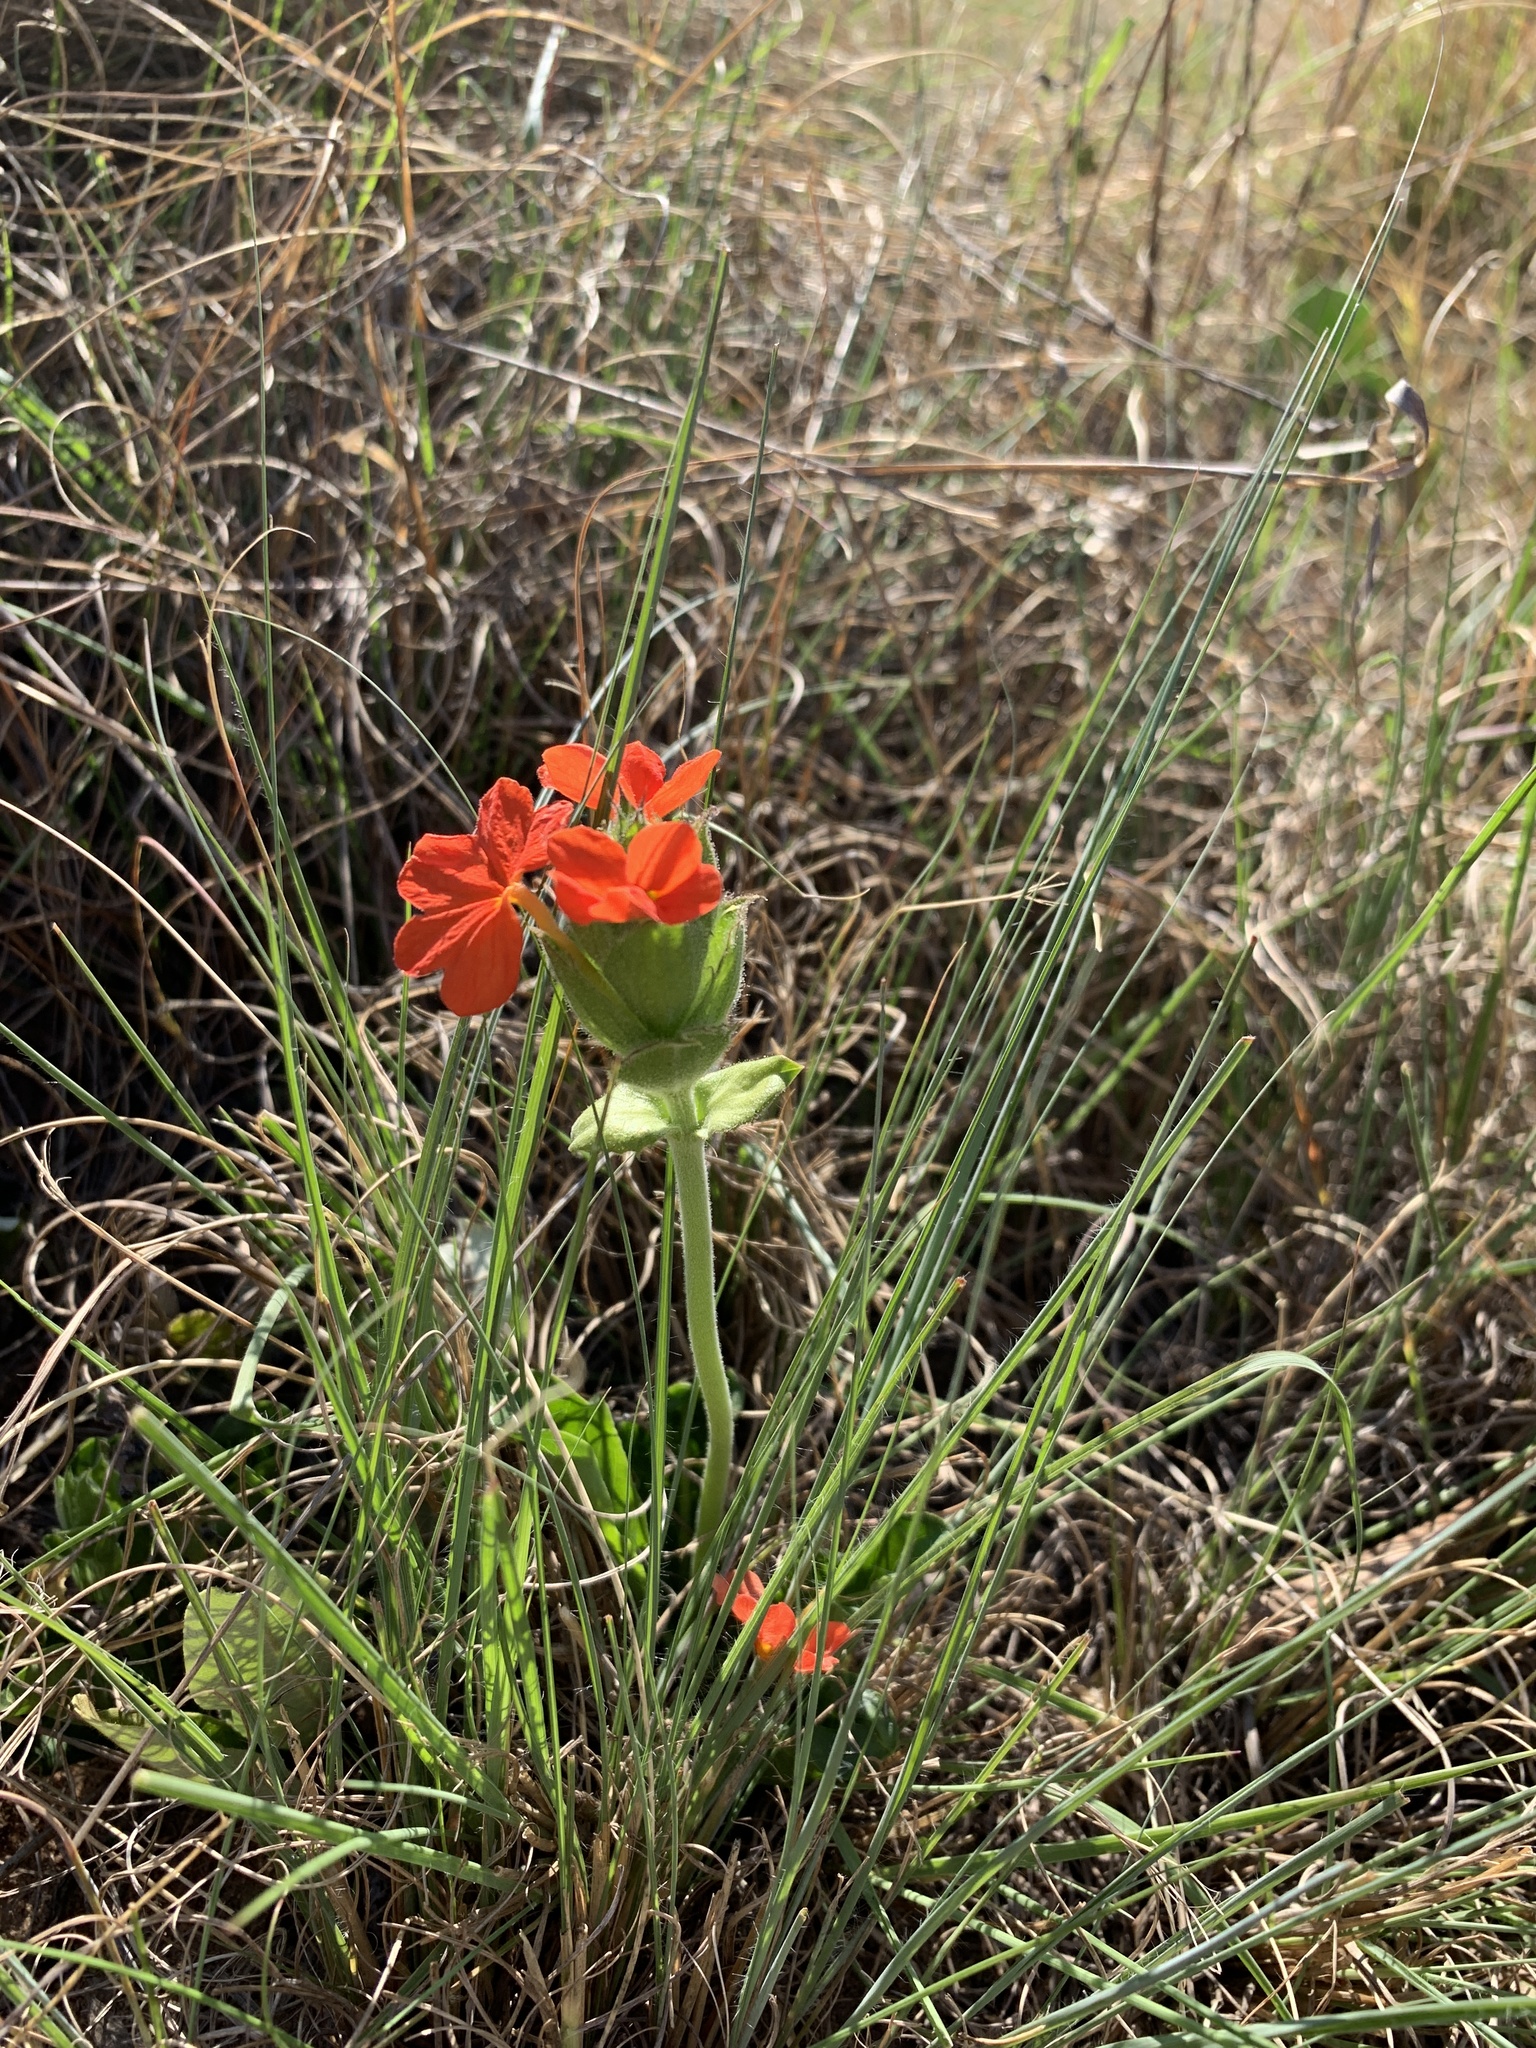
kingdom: Plantae
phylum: Tracheophyta
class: Magnoliopsida
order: Lamiales
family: Acanthaceae
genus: Crossandra
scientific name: Crossandra greenstockii
